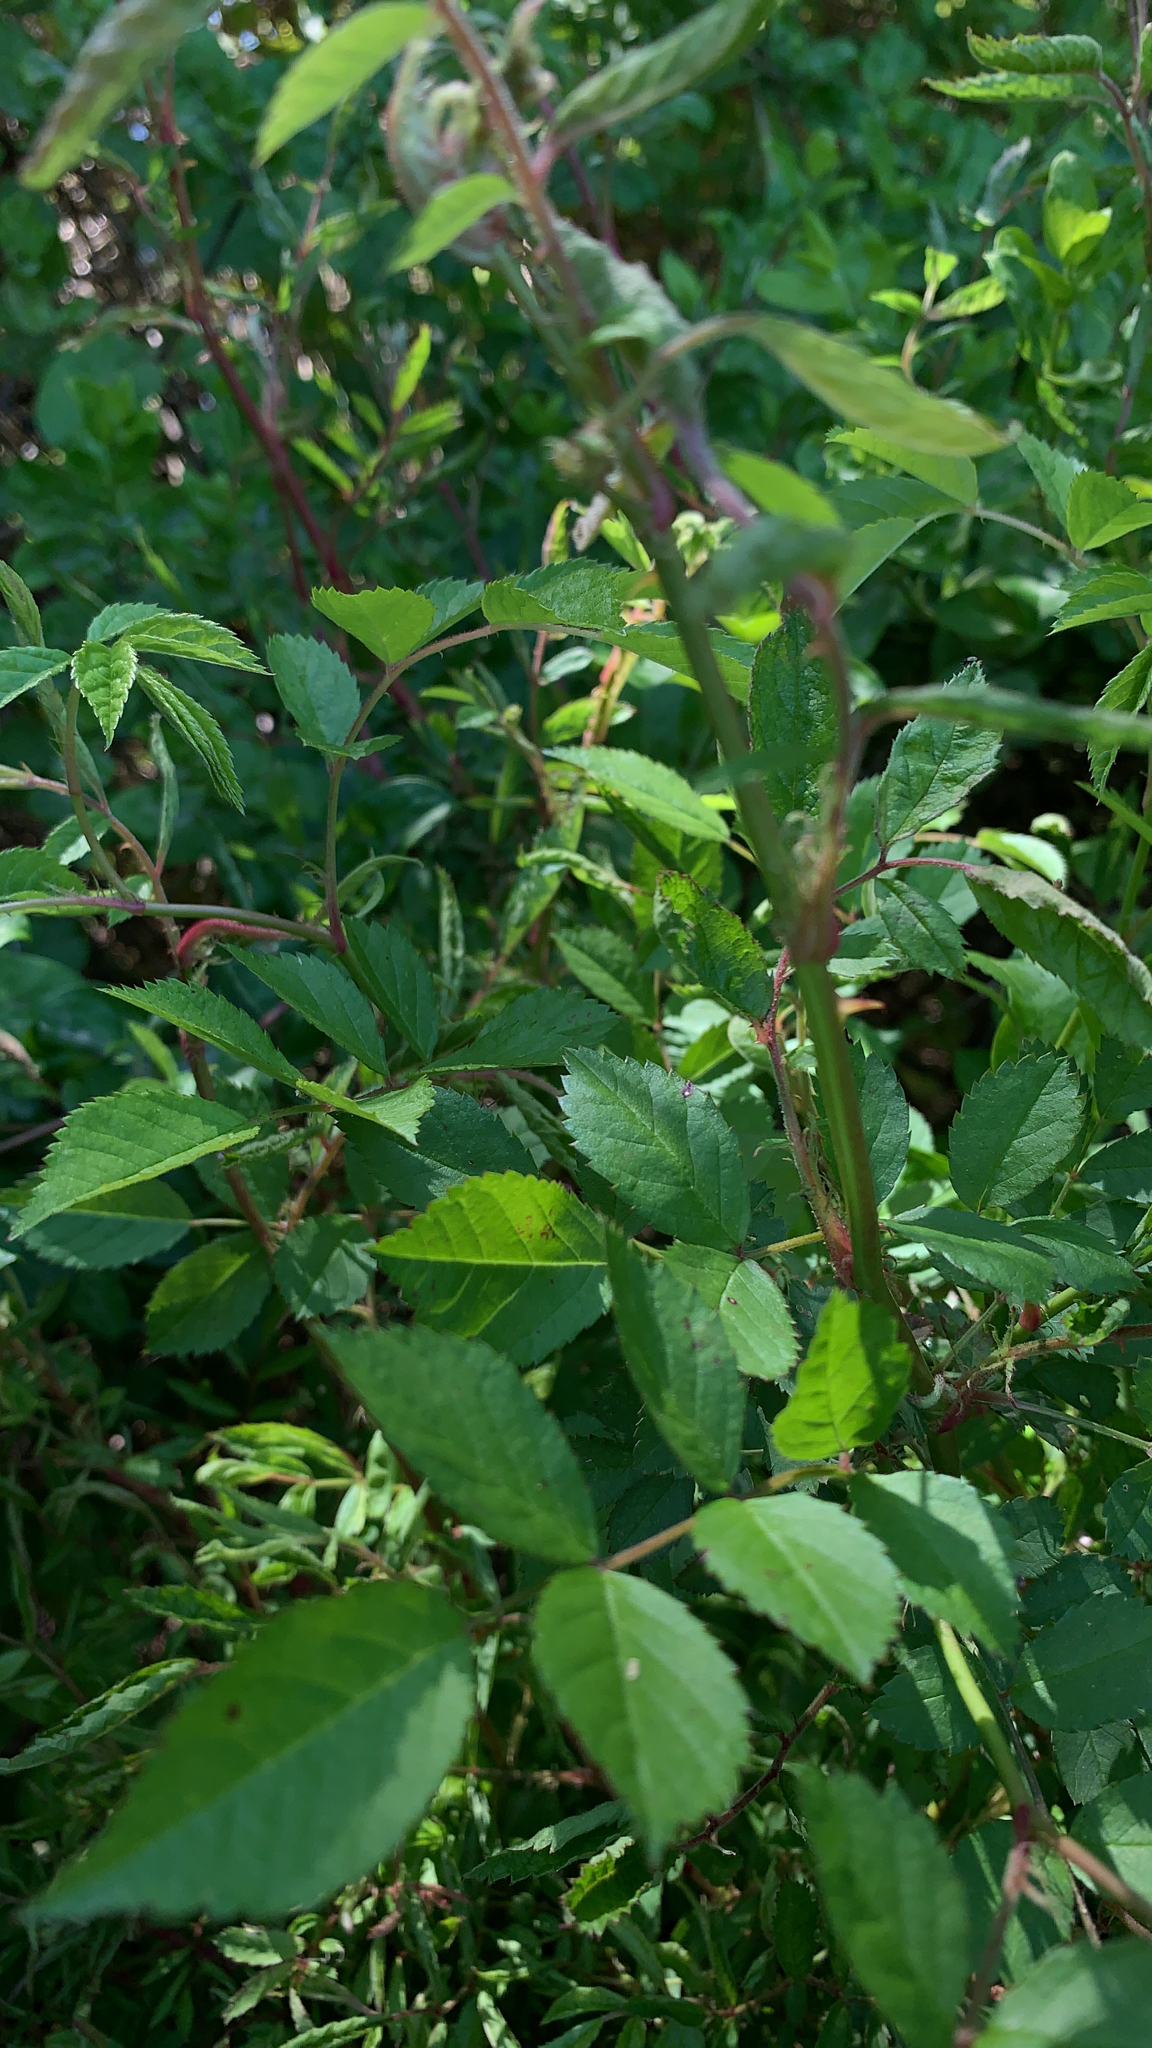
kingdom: Plantae
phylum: Tracheophyta
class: Magnoliopsida
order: Rosales
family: Rosaceae
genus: Rosa
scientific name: Rosa multiflora
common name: Multiflora rose
